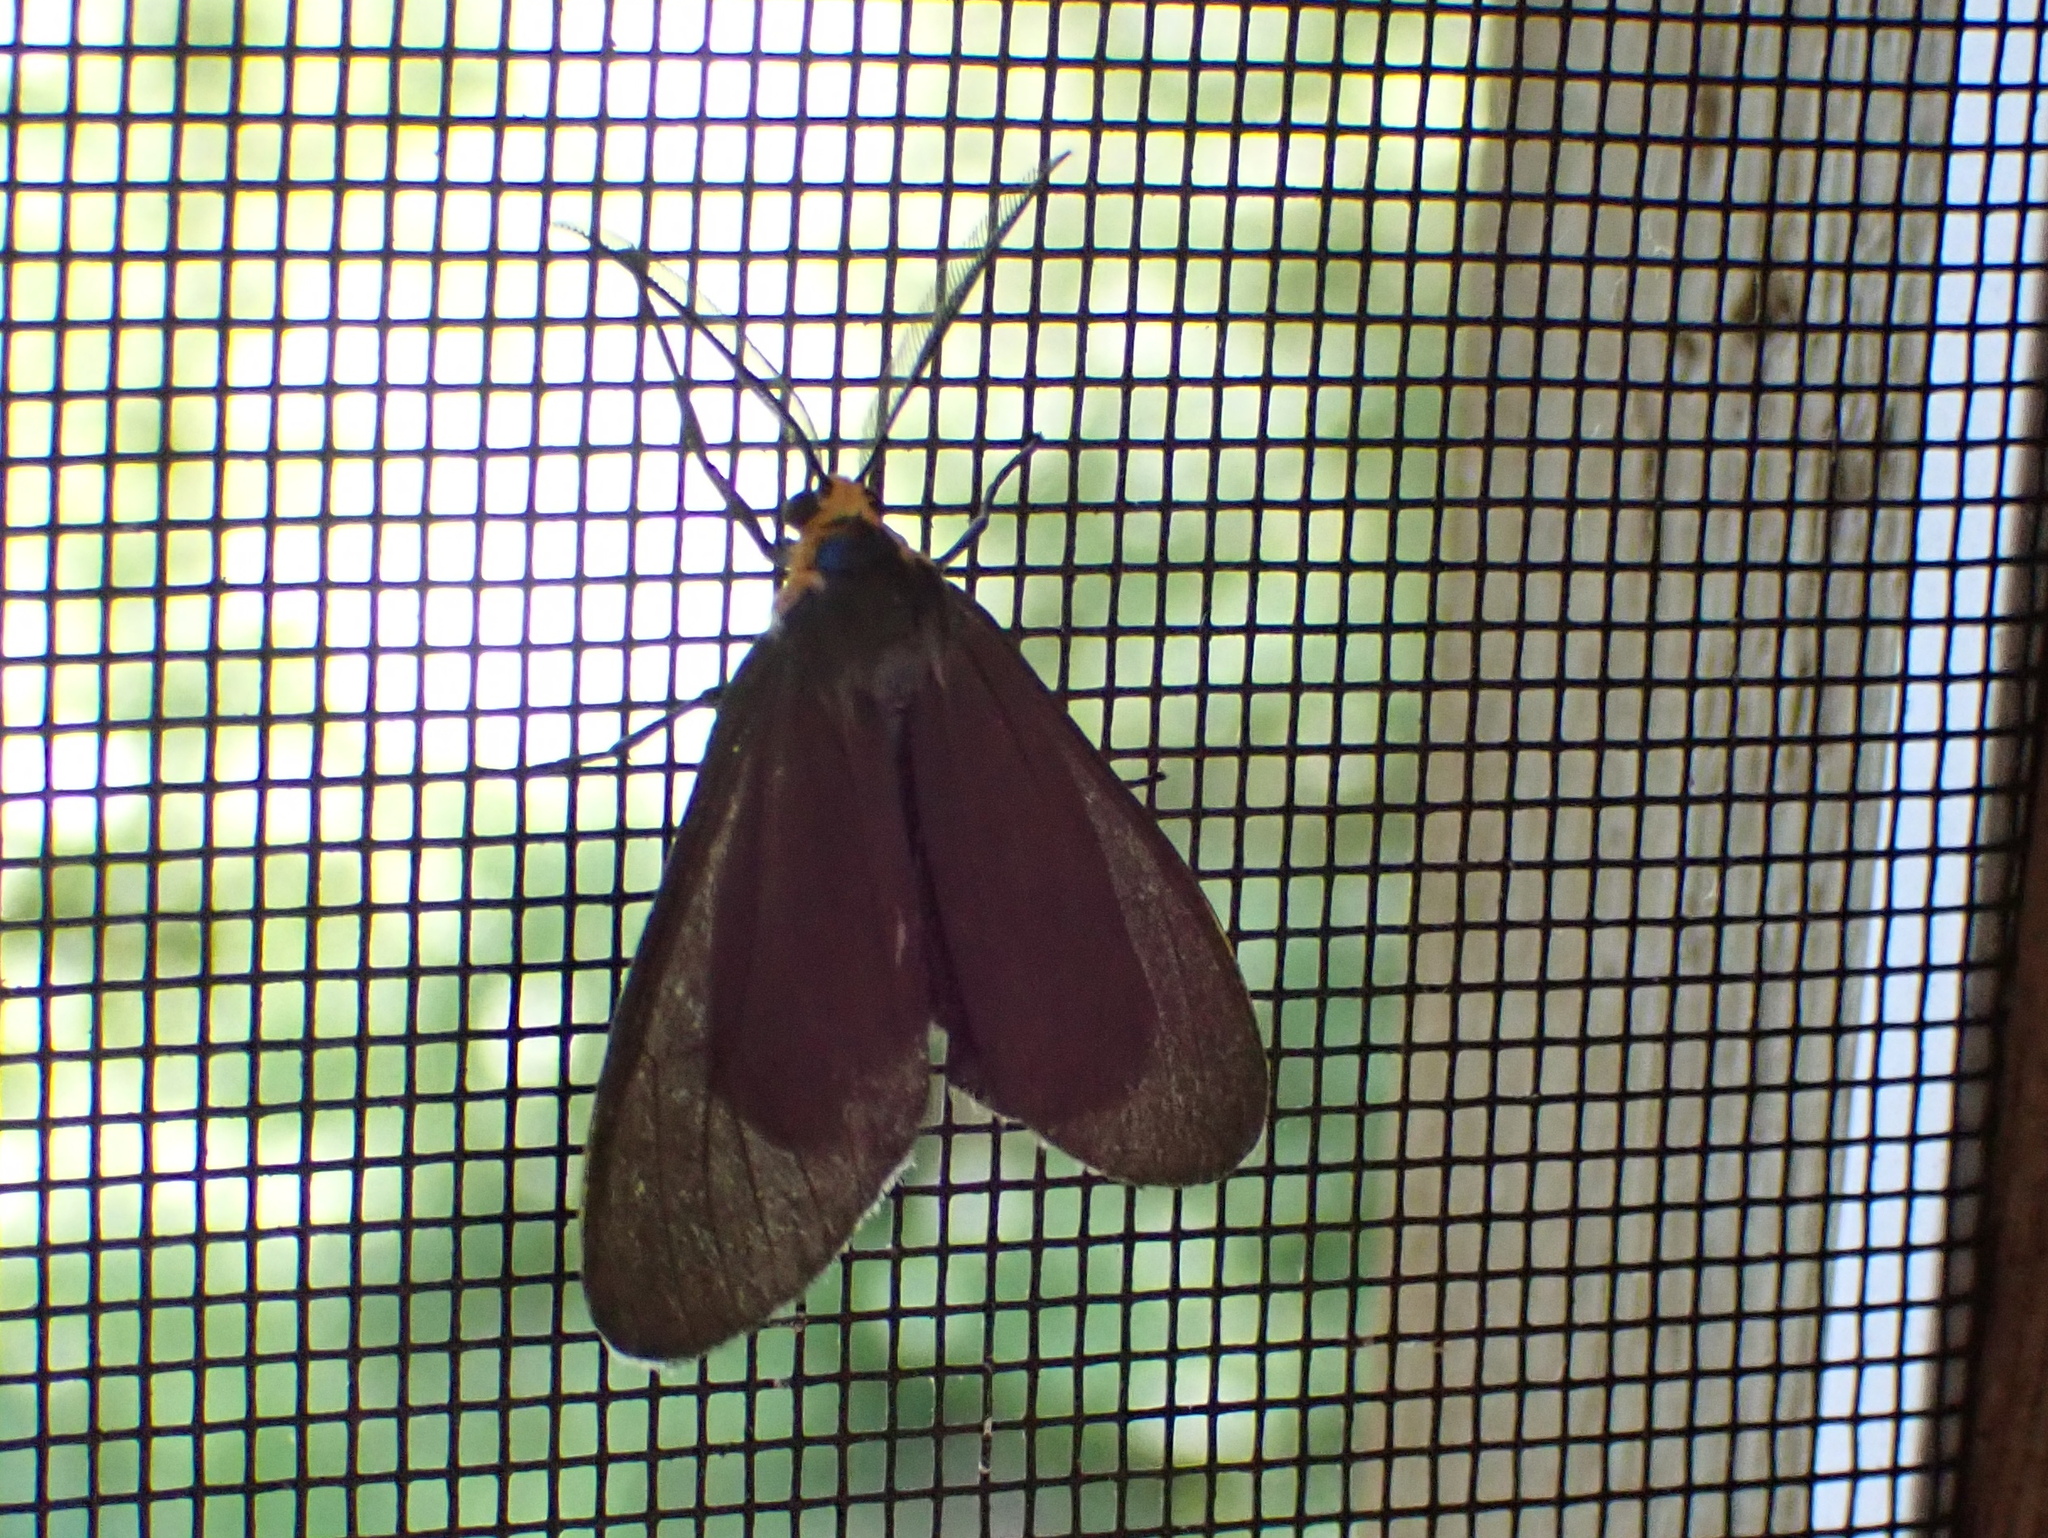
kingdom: Animalia
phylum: Arthropoda
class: Insecta
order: Lepidoptera
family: Erebidae
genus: Ctenucha
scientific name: Ctenucha virginica
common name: Virginia ctenucha moth
